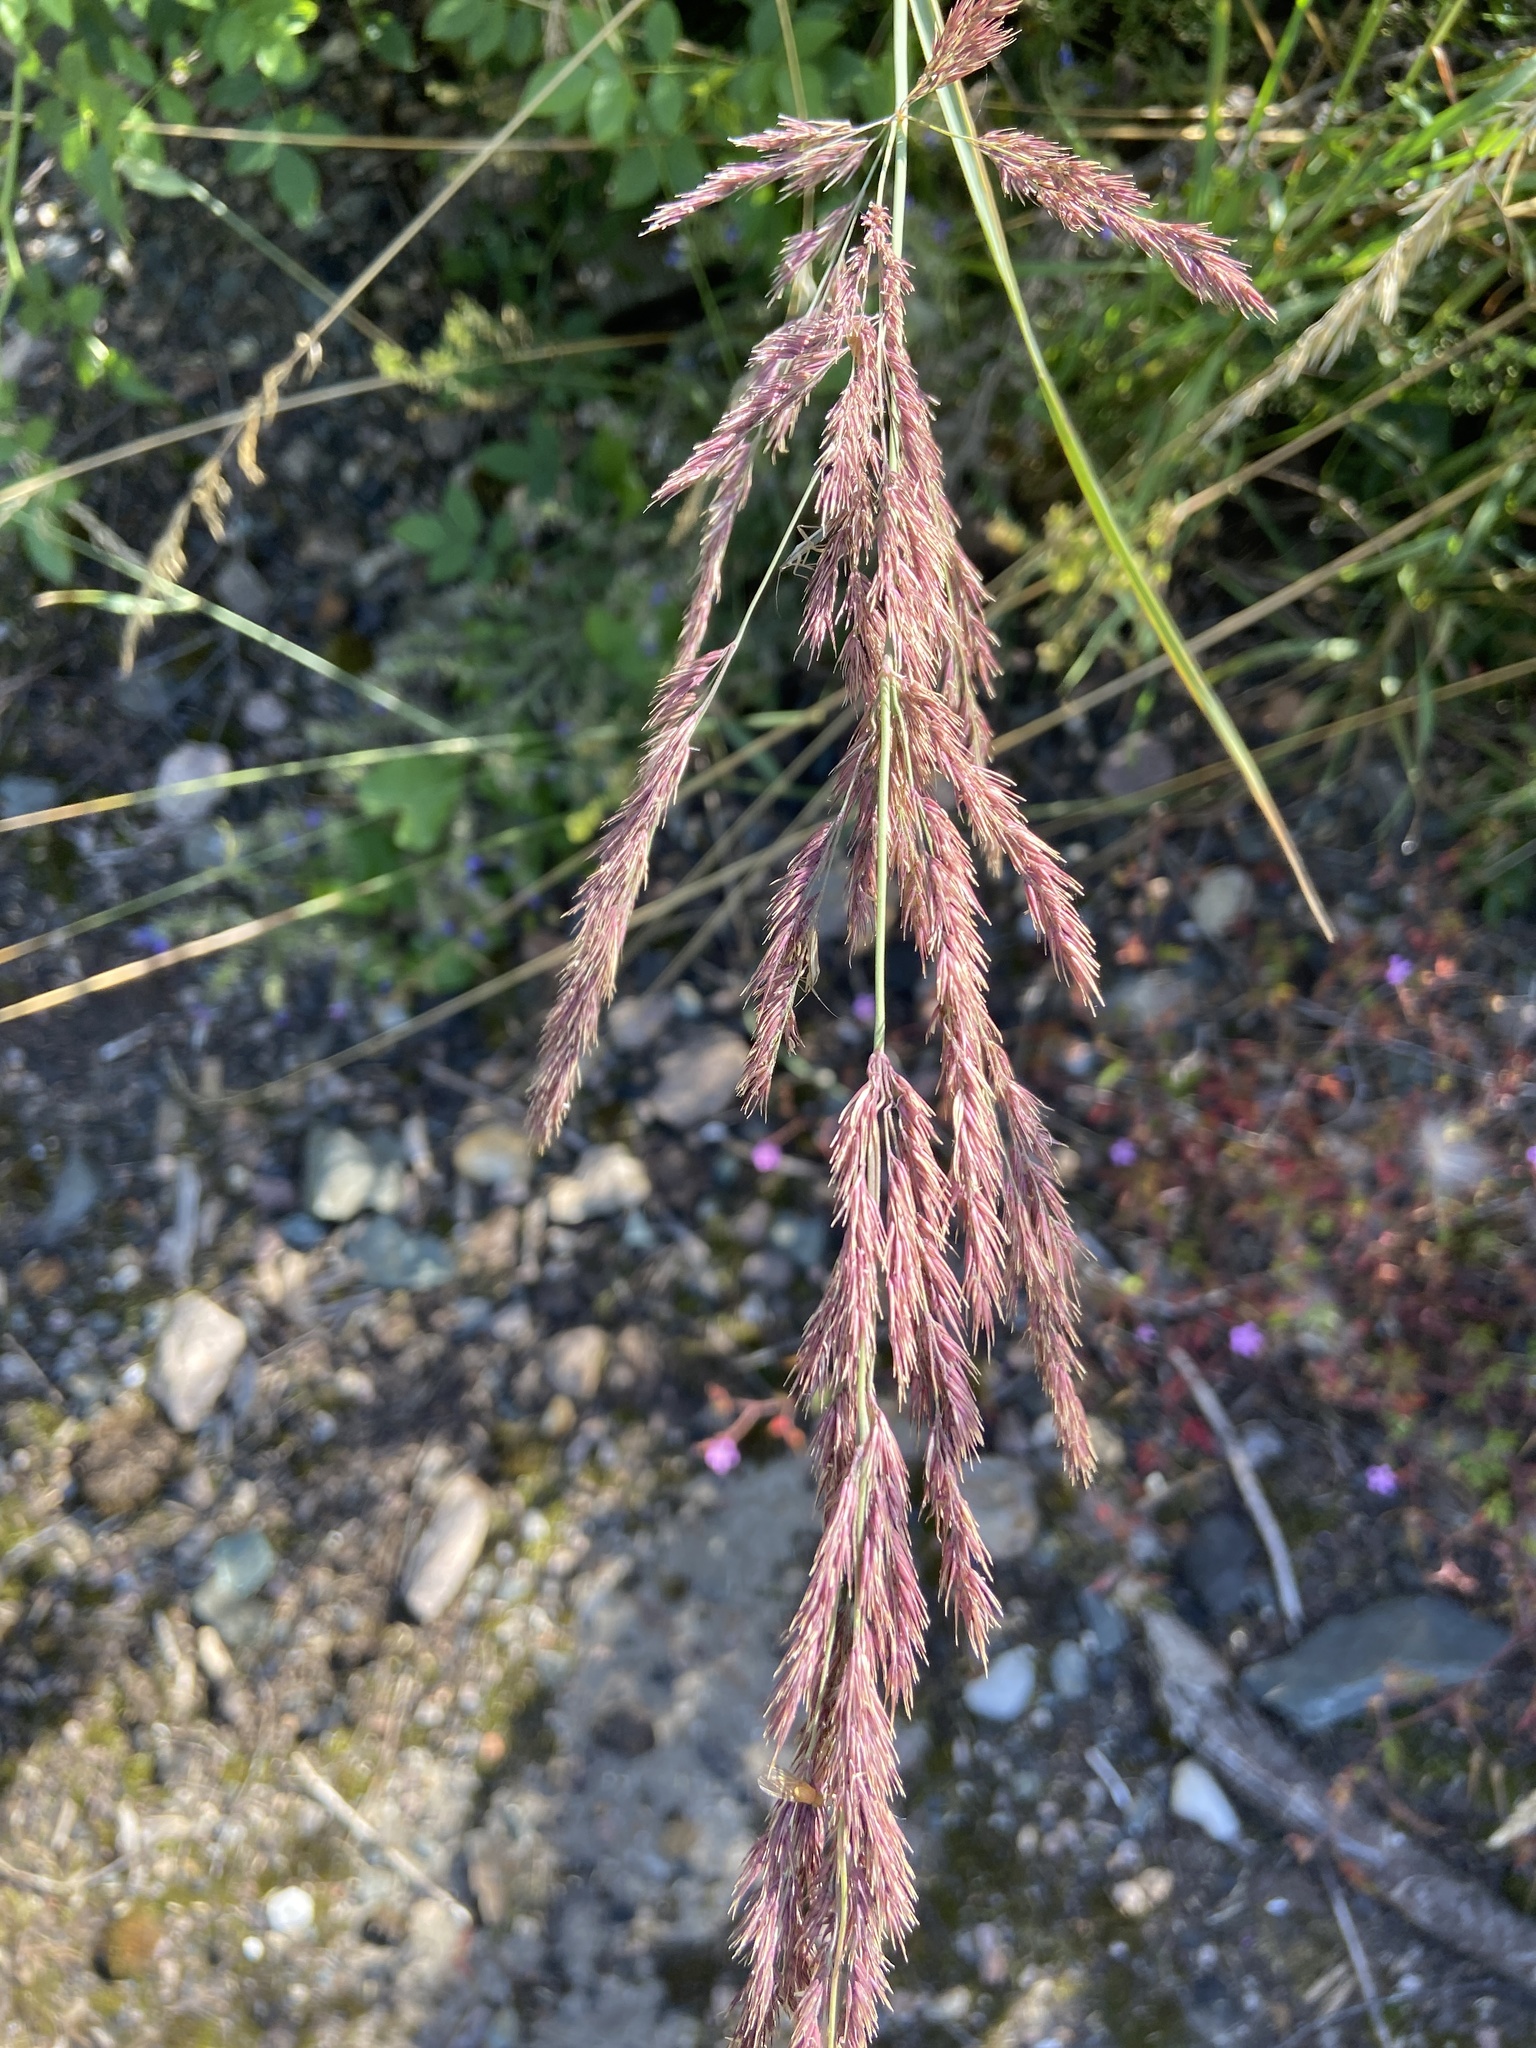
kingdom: Plantae
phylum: Tracheophyta
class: Liliopsida
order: Poales
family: Poaceae
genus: Calamagrostis
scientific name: Calamagrostis epigejos
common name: Wood small-reed
